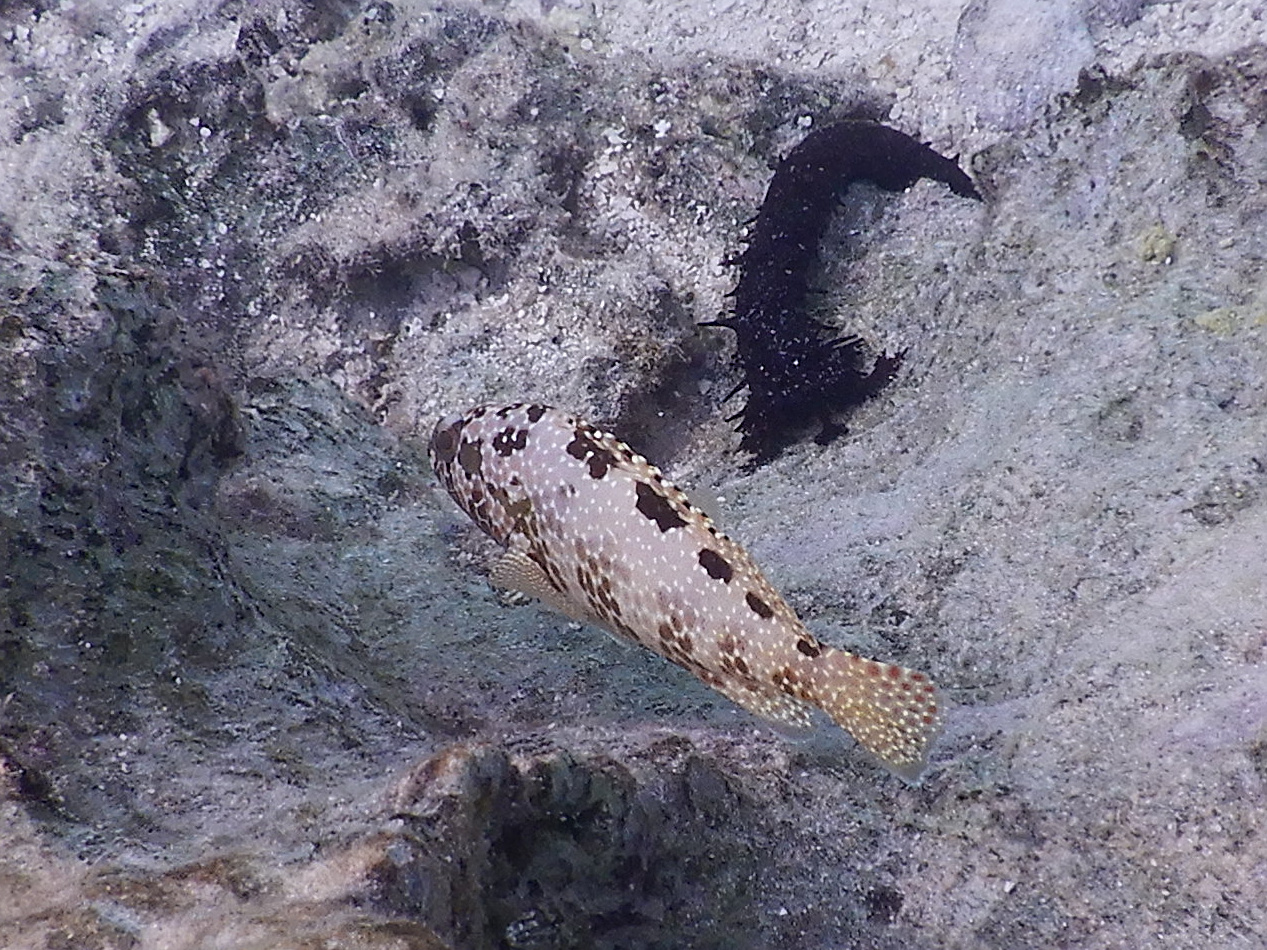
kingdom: Animalia
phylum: Chordata
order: Perciformes
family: Serranidae
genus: Epinephelus
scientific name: Epinephelus hexagonatus
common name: Hexagon grouper
